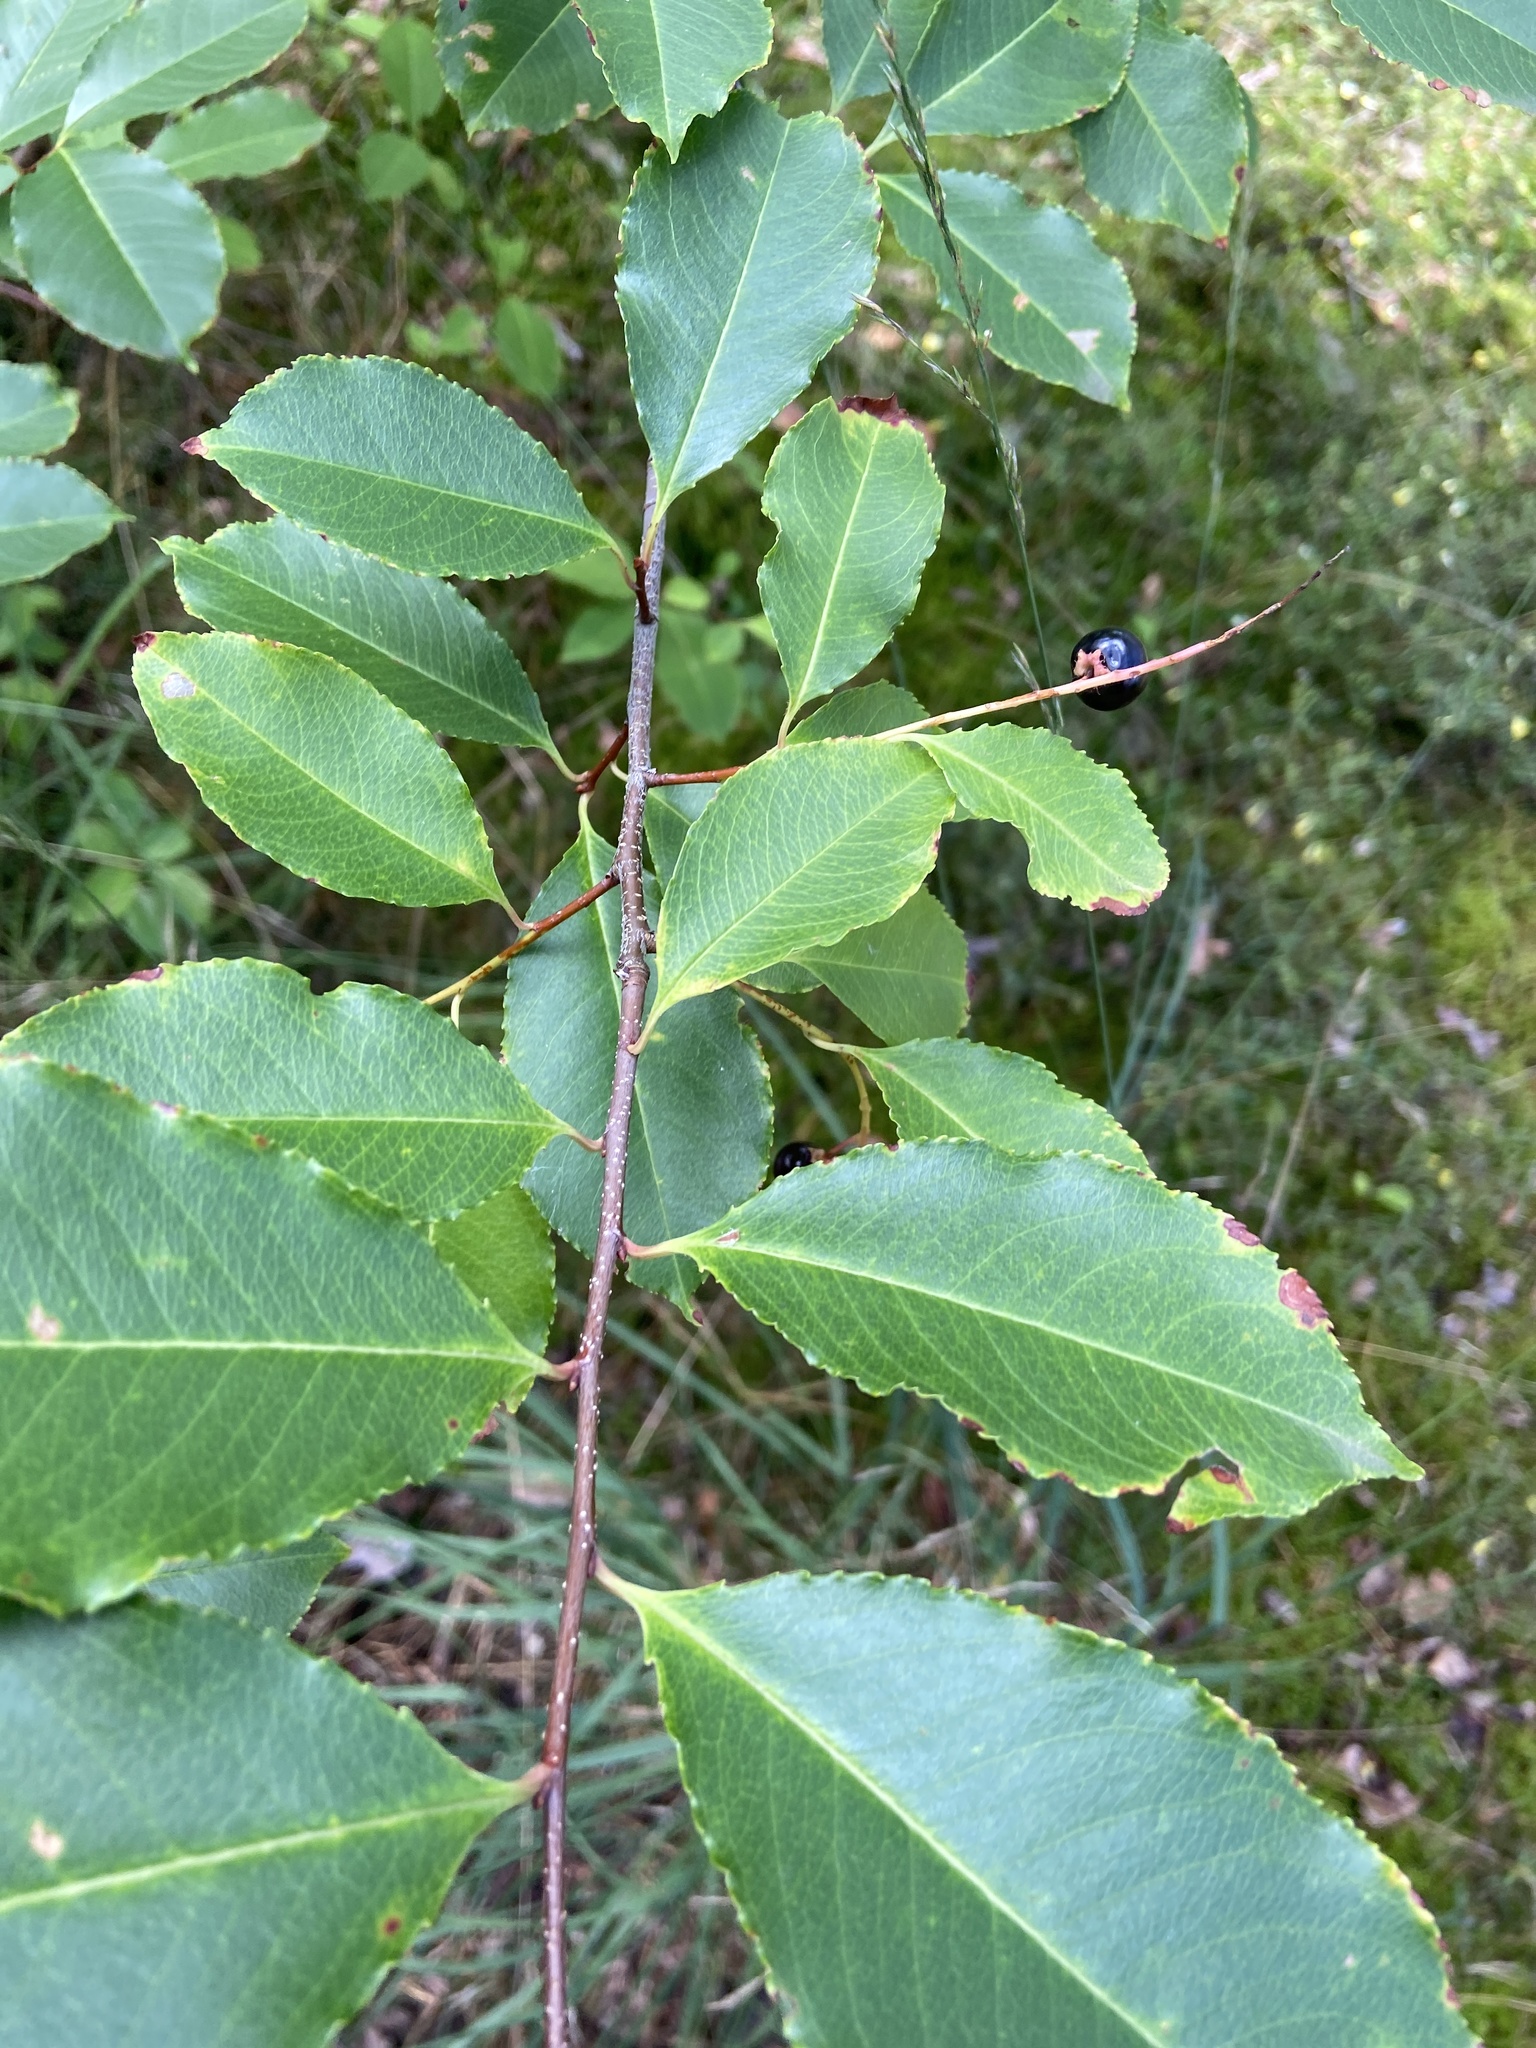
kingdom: Plantae
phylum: Tracheophyta
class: Magnoliopsida
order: Rosales
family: Rosaceae
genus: Prunus
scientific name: Prunus serotina
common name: Black cherry
